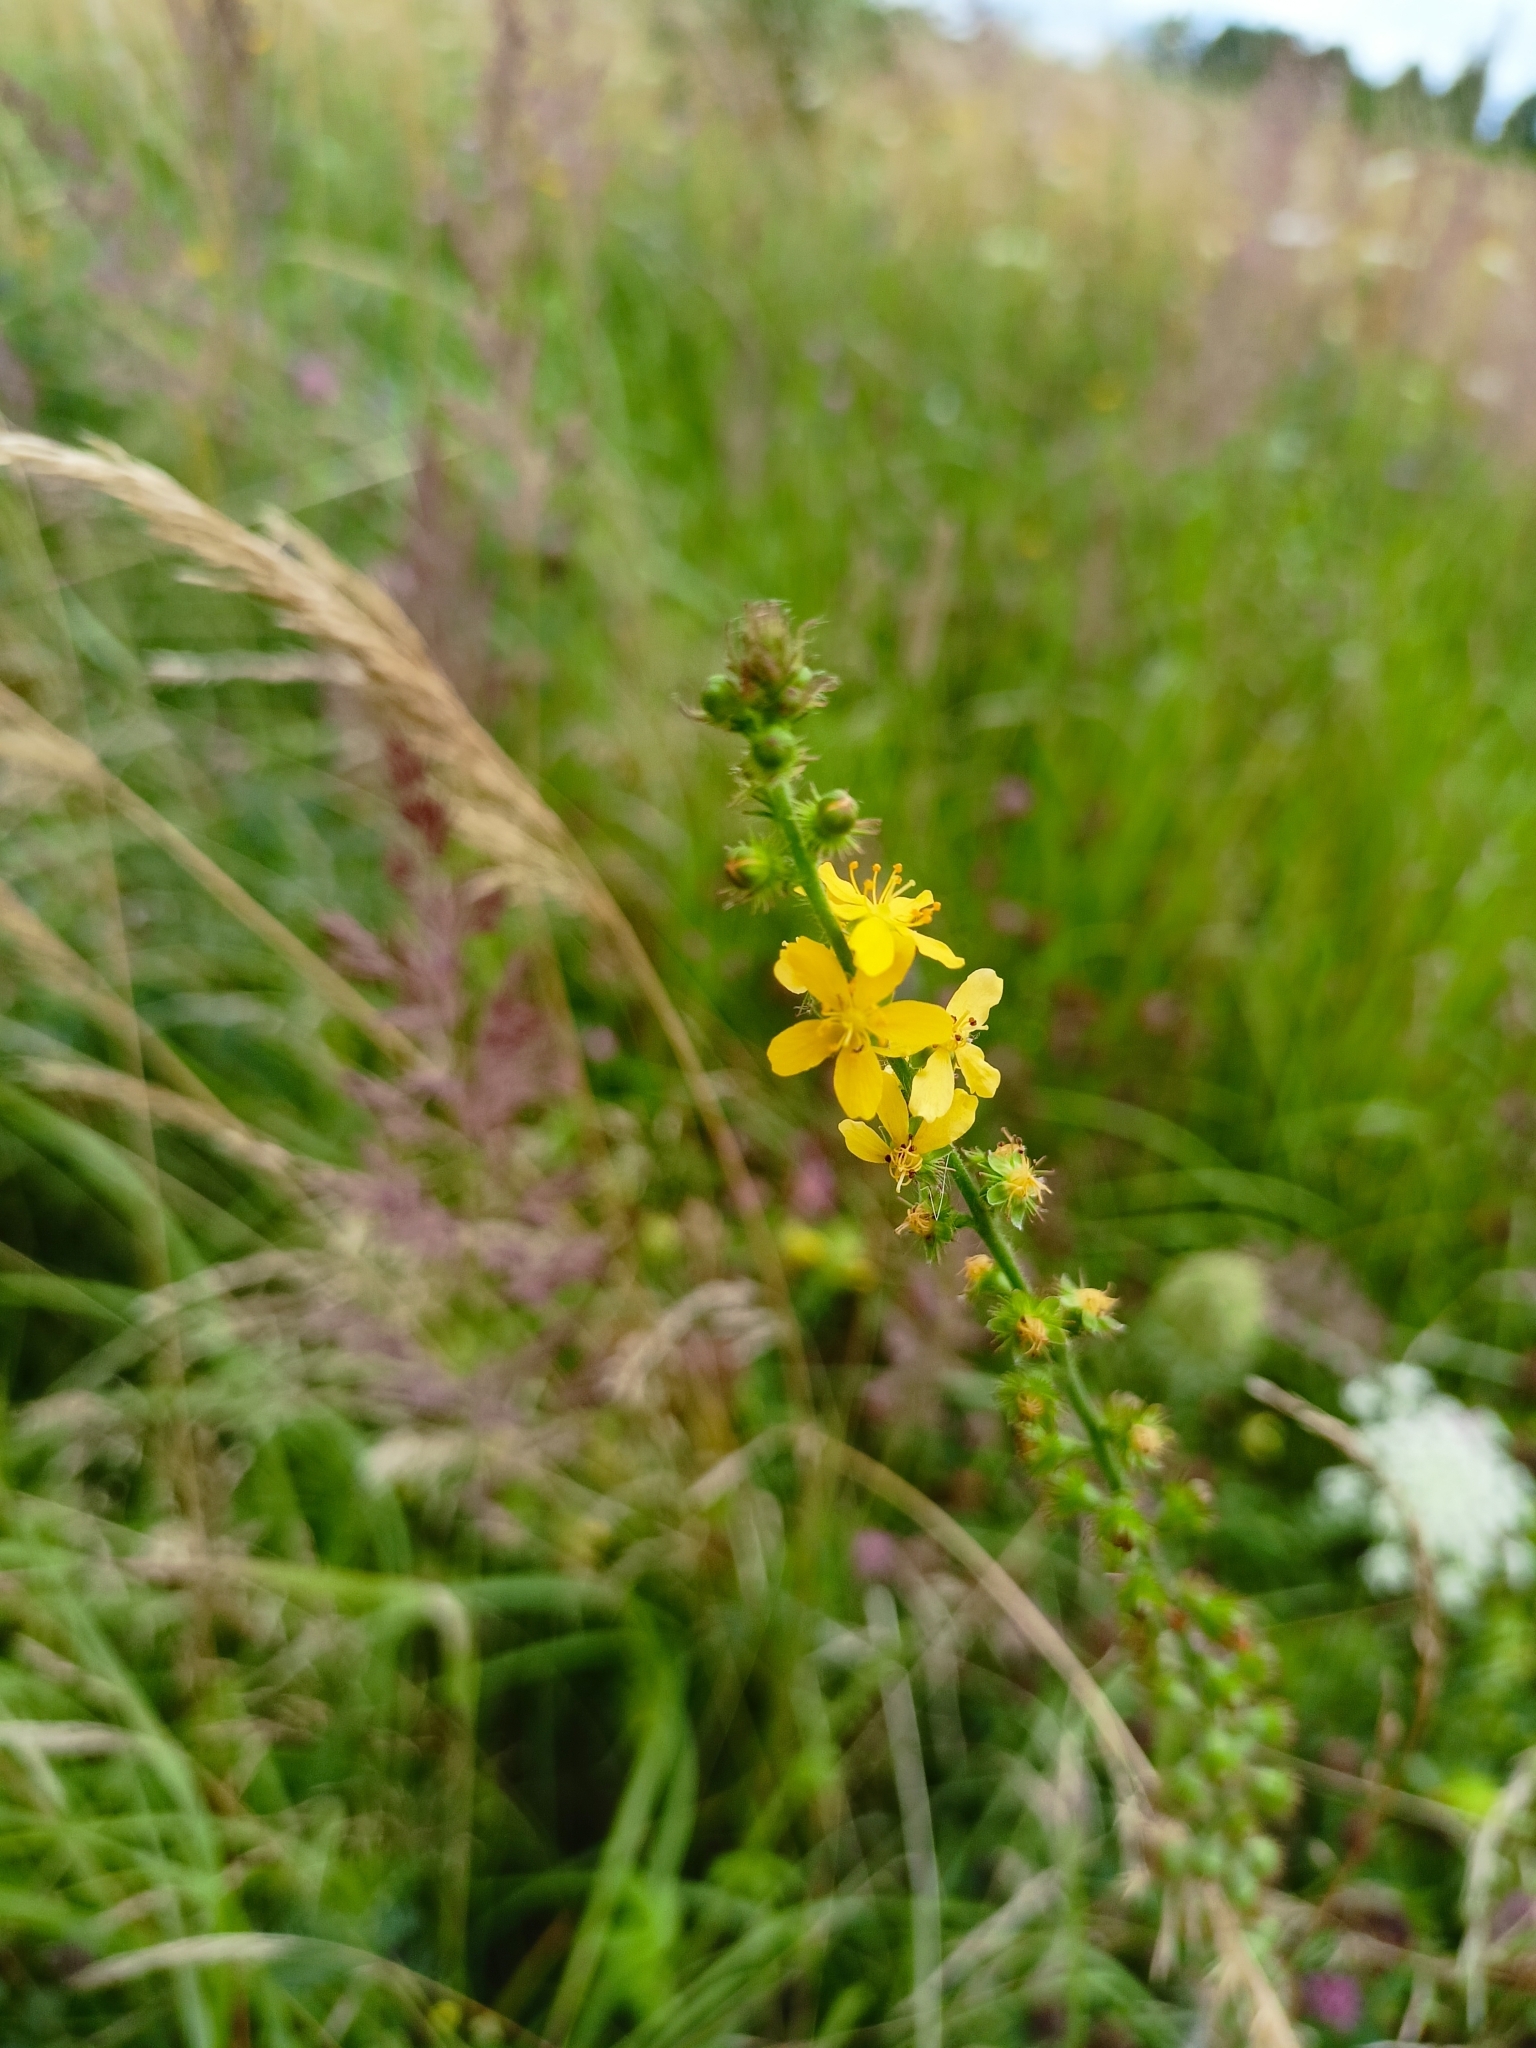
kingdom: Plantae
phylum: Tracheophyta
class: Magnoliopsida
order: Rosales
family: Rosaceae
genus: Agrimonia
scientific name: Agrimonia eupatoria
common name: Agrimony
